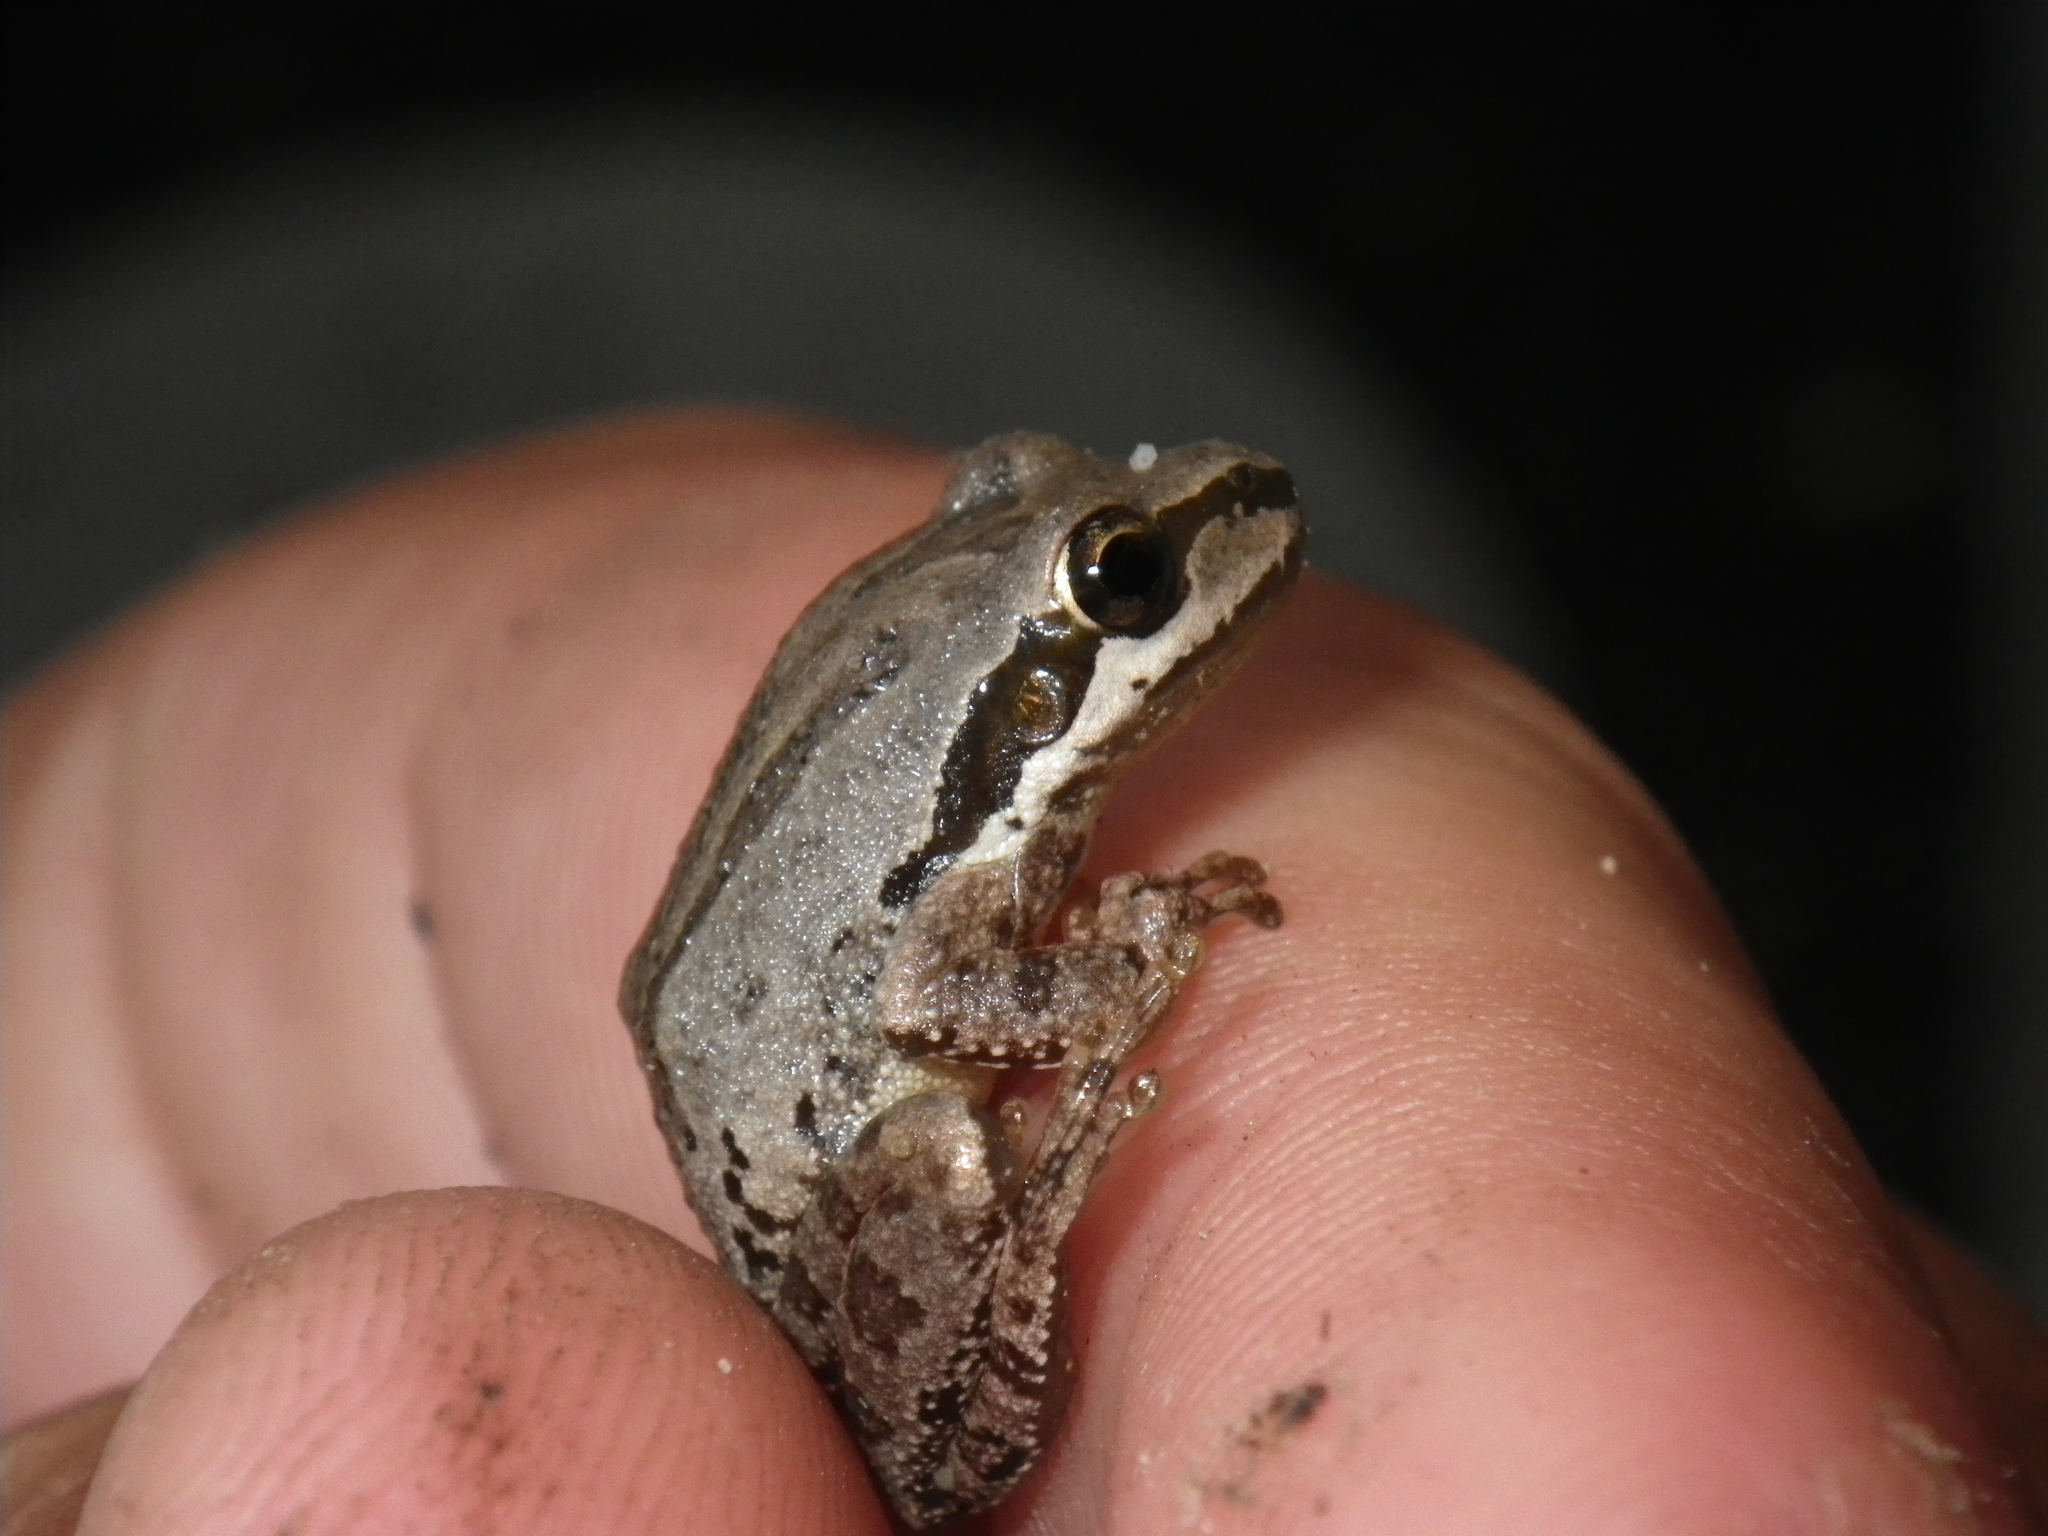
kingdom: Animalia
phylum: Chordata
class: Amphibia
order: Anura
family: Hylidae
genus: Pseudacris
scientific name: Pseudacris regilla
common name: Pacific chorus frog
